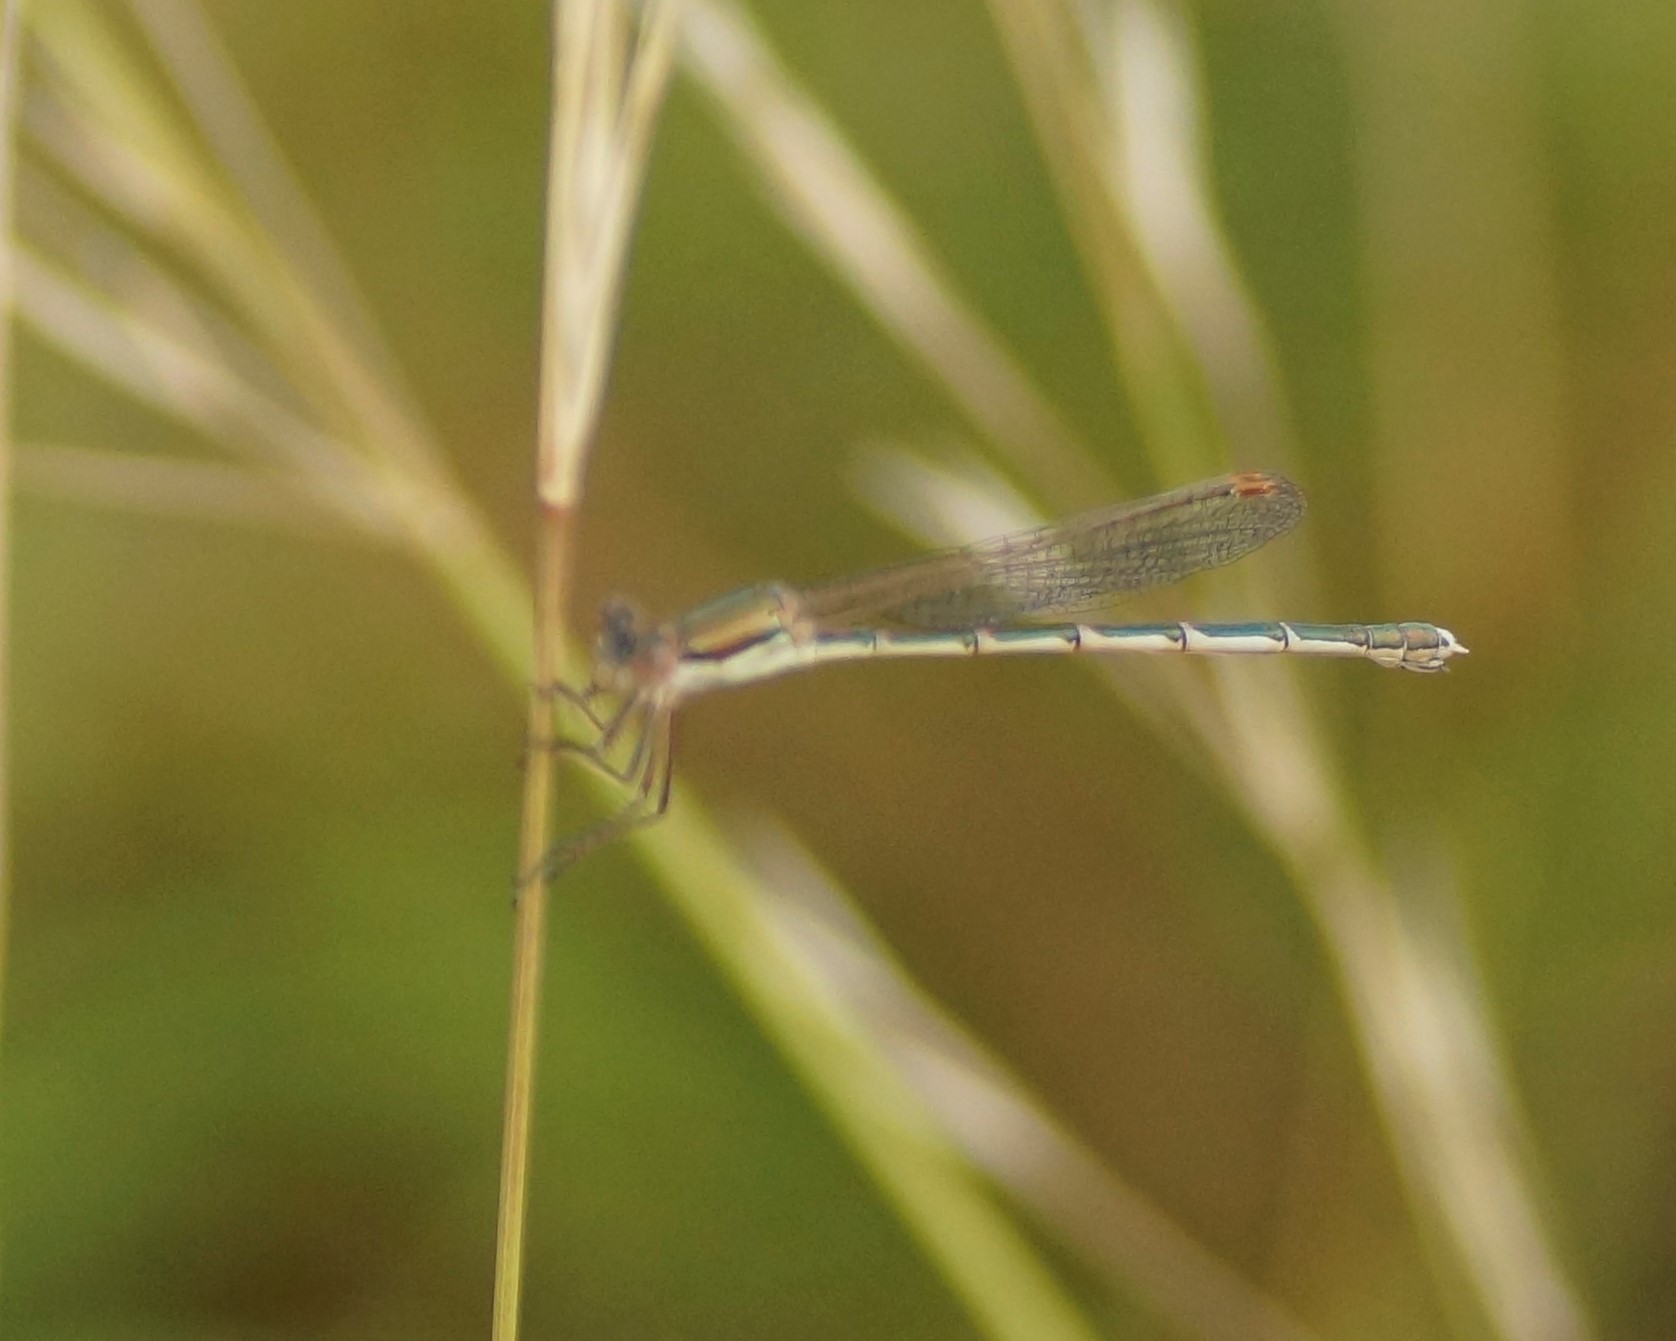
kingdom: Animalia
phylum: Arthropoda
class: Insecta
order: Odonata
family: Lestidae
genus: Austrolestes
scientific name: Austrolestes analis
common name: Slender ringtail
